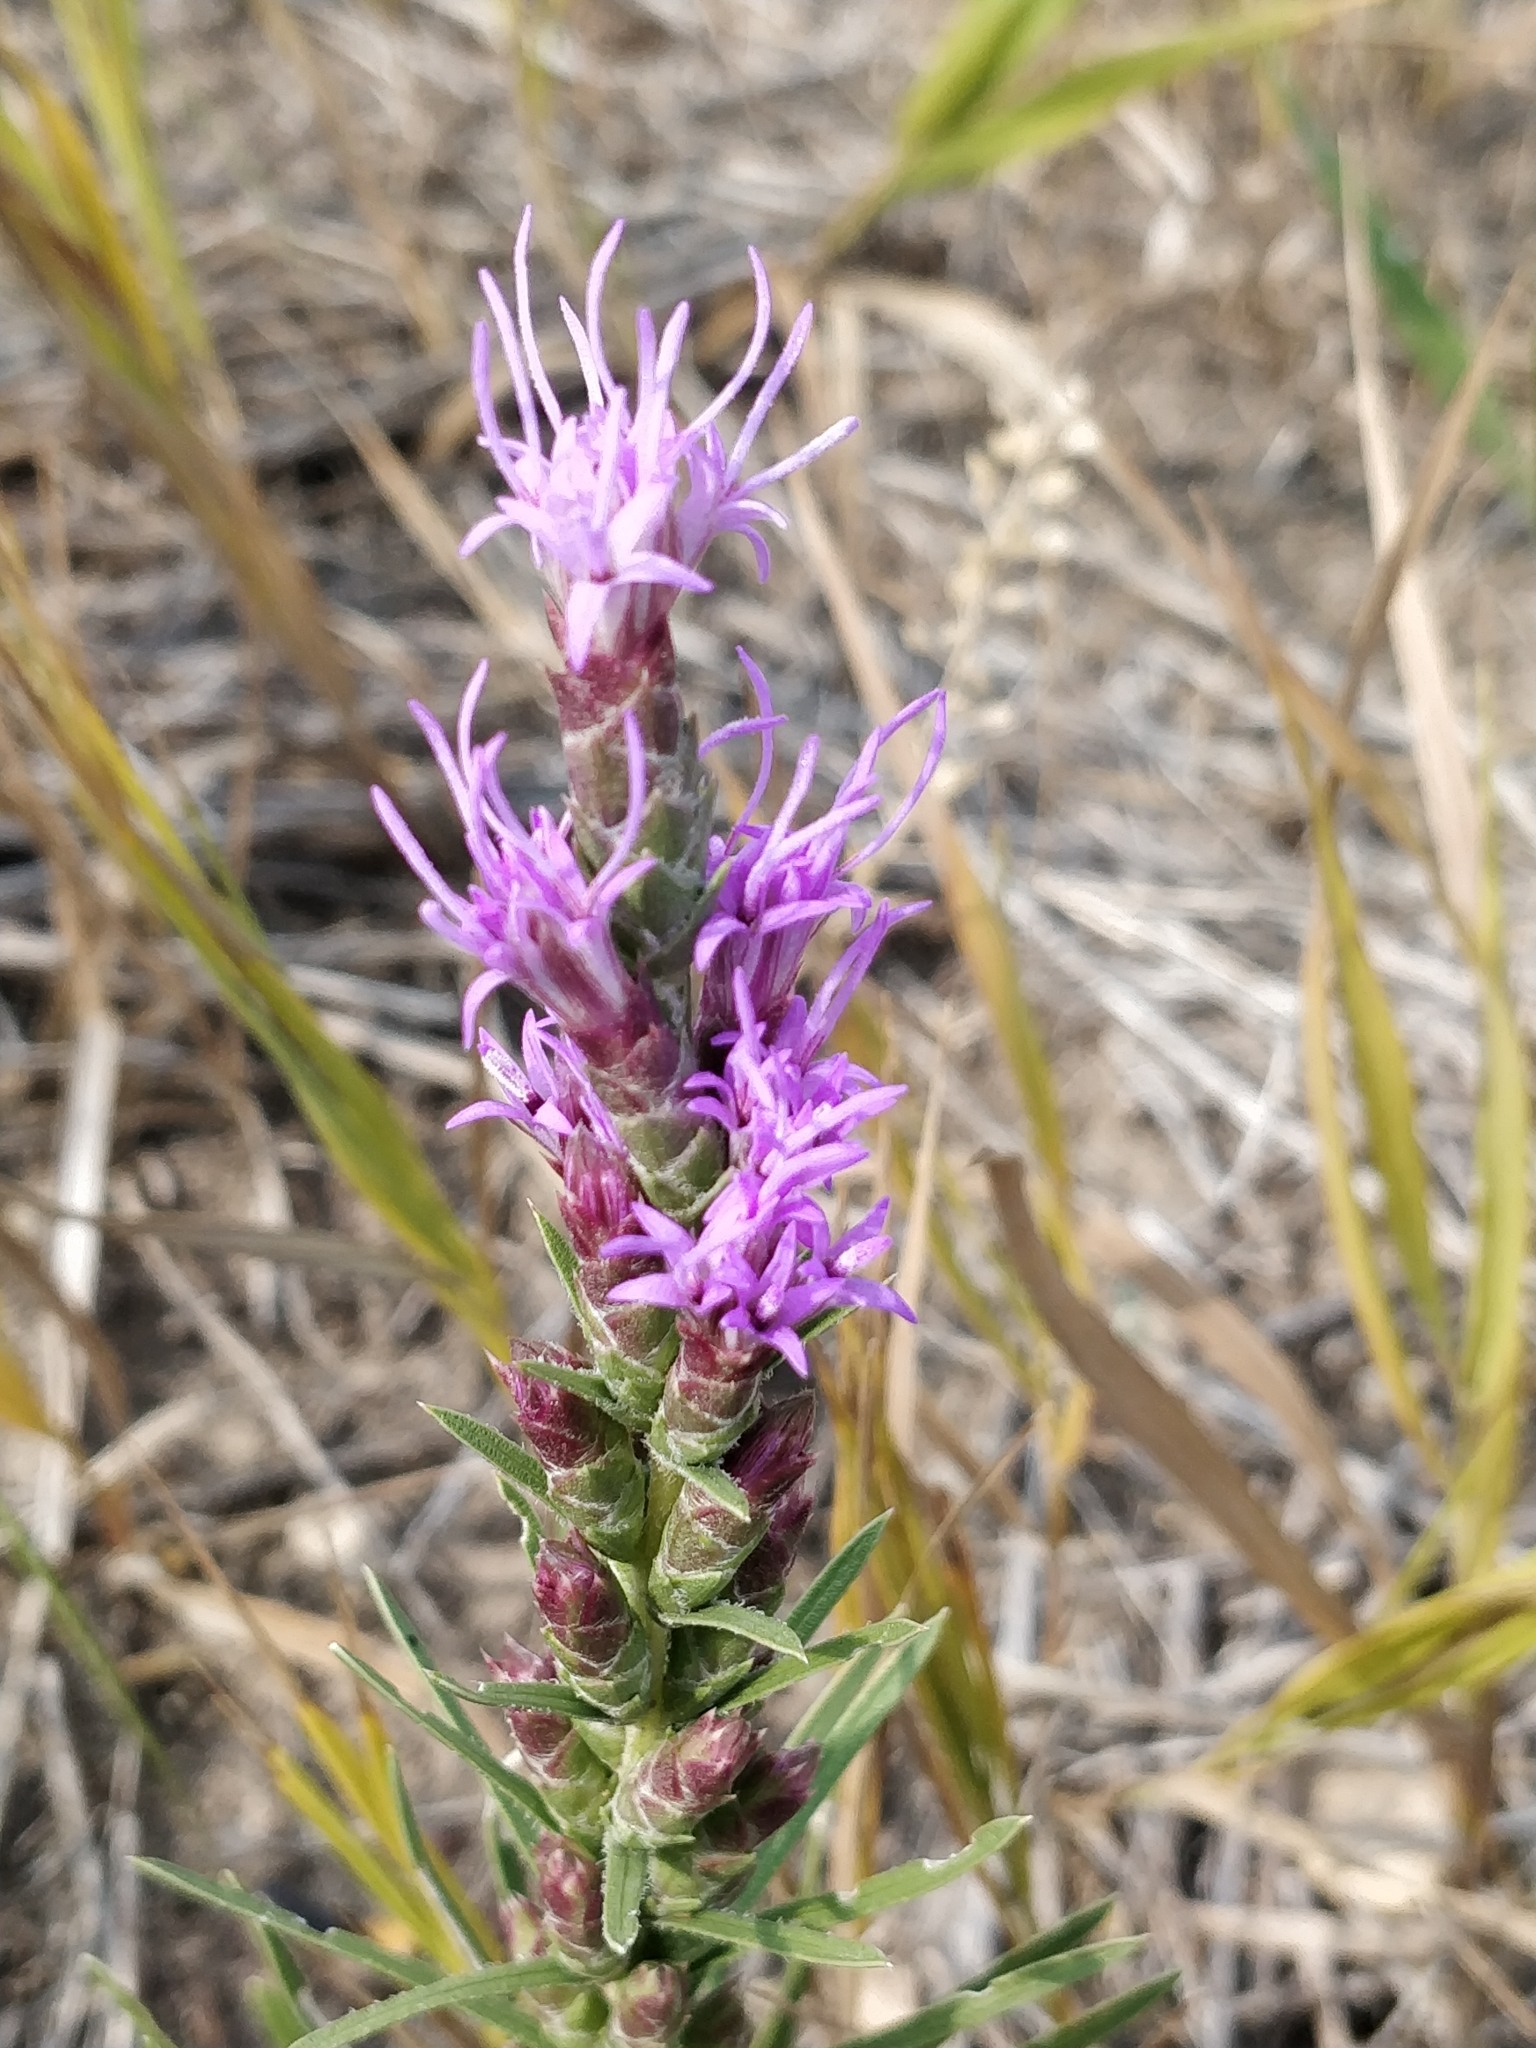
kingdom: Plantae
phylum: Tracheophyta
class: Magnoliopsida
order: Asterales
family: Asteraceae
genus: Liatris
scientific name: Liatris punctata
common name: Dotted gayfeather
